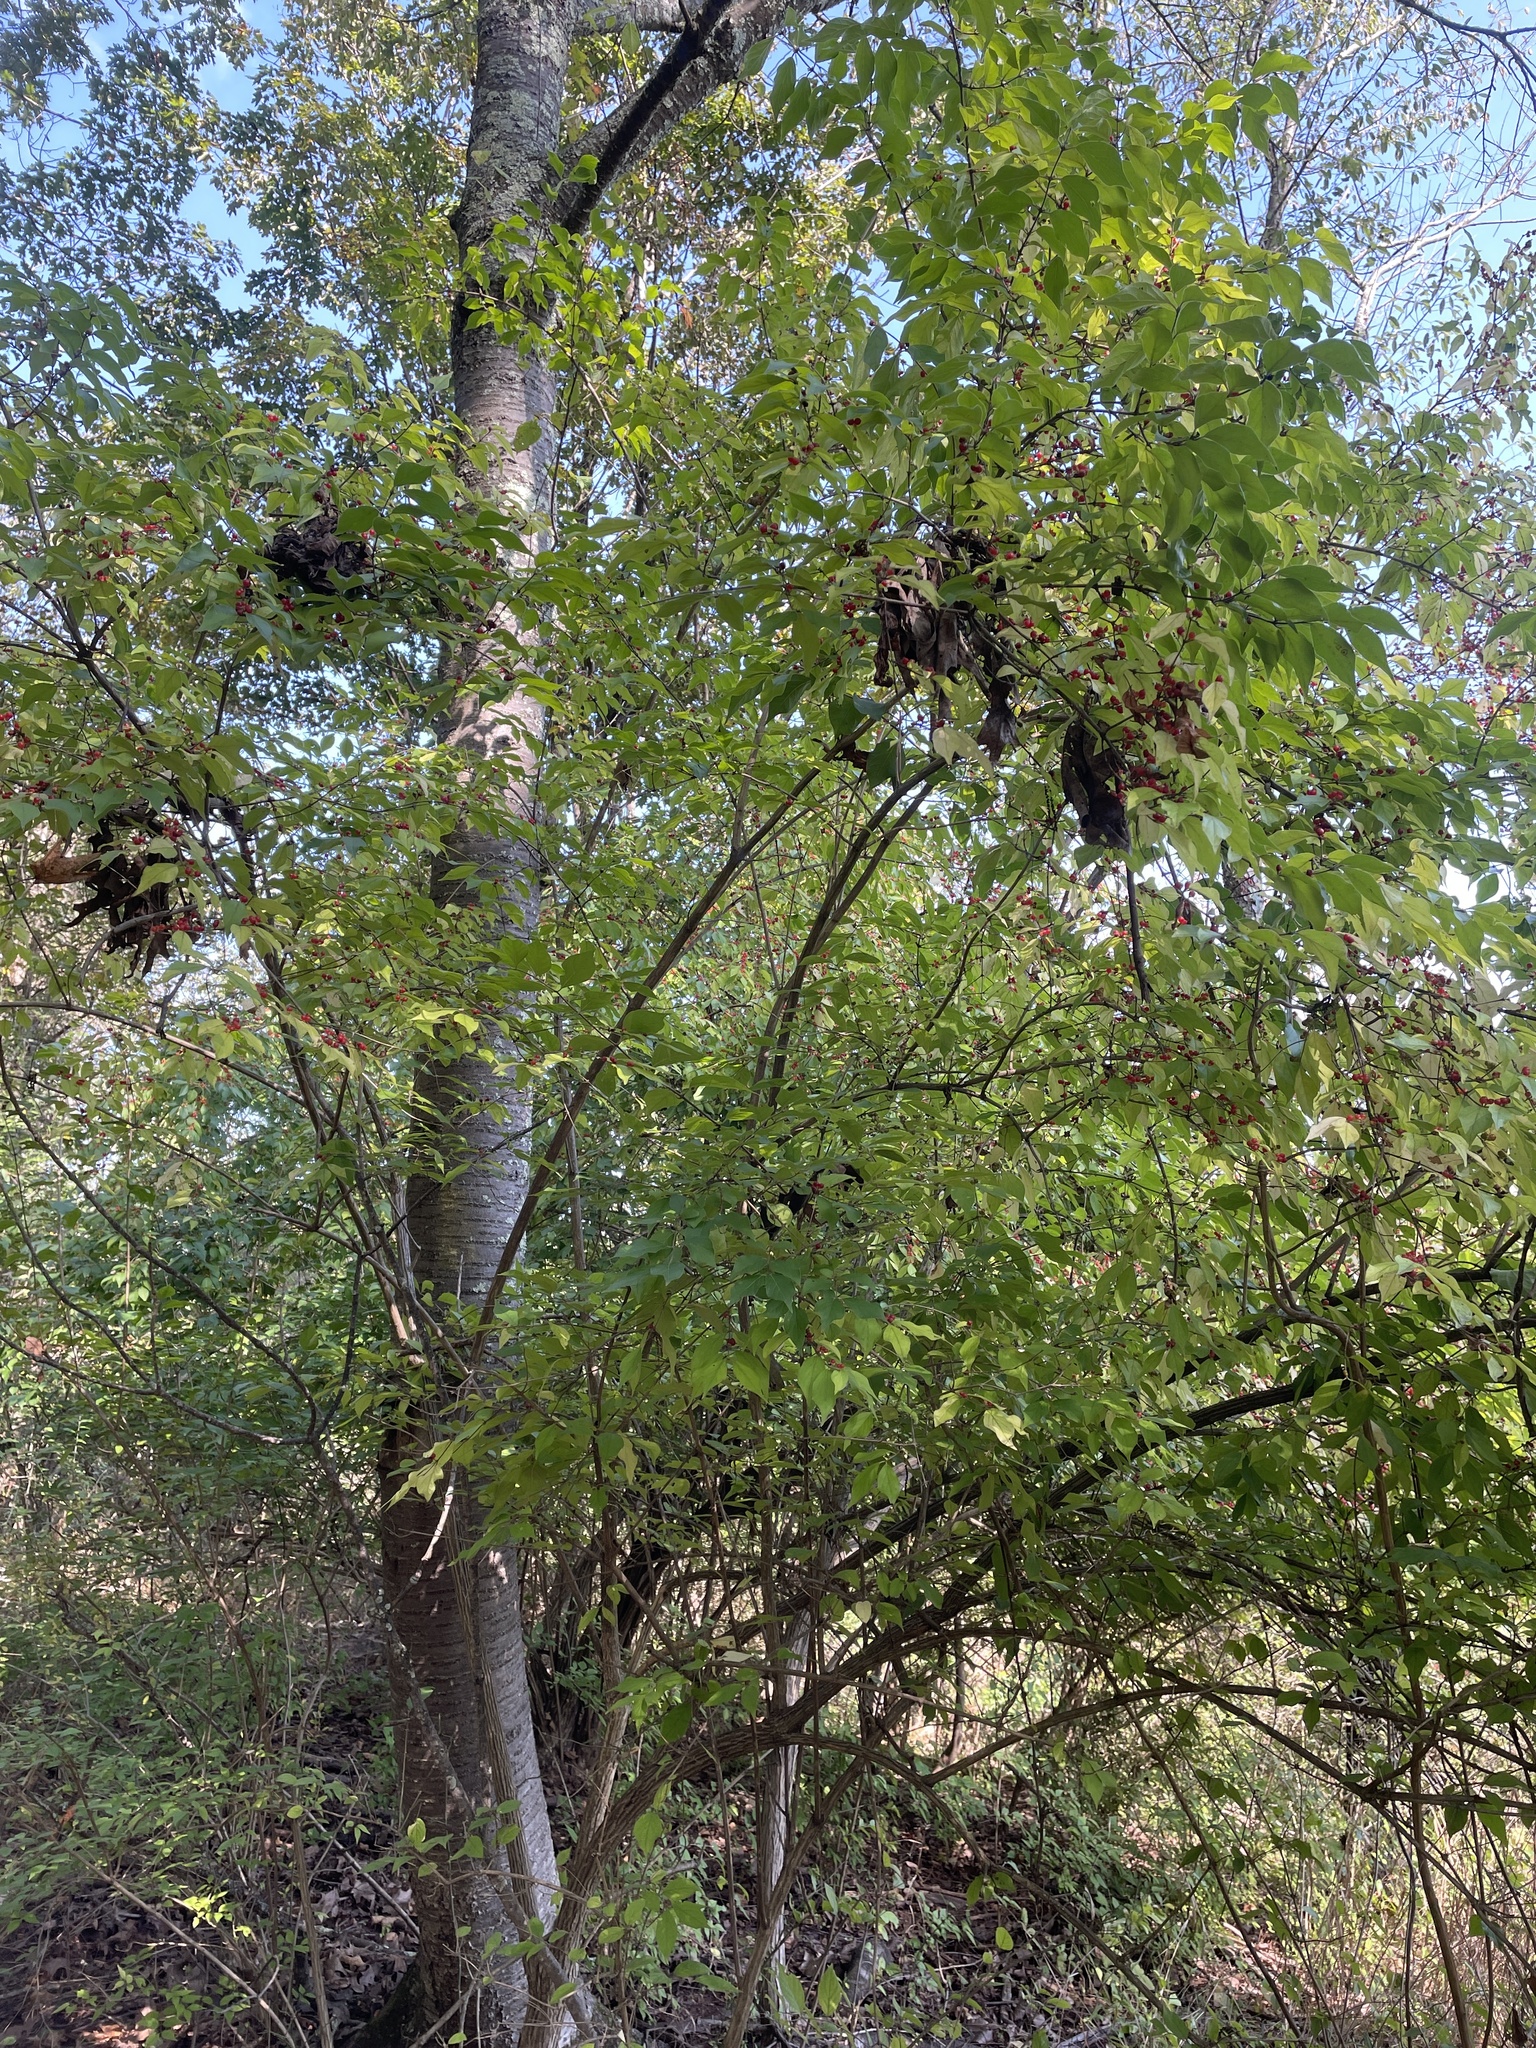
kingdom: Plantae
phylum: Tracheophyta
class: Magnoliopsida
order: Dipsacales
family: Caprifoliaceae
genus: Lonicera
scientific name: Lonicera maackii
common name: Amur honeysuckle
